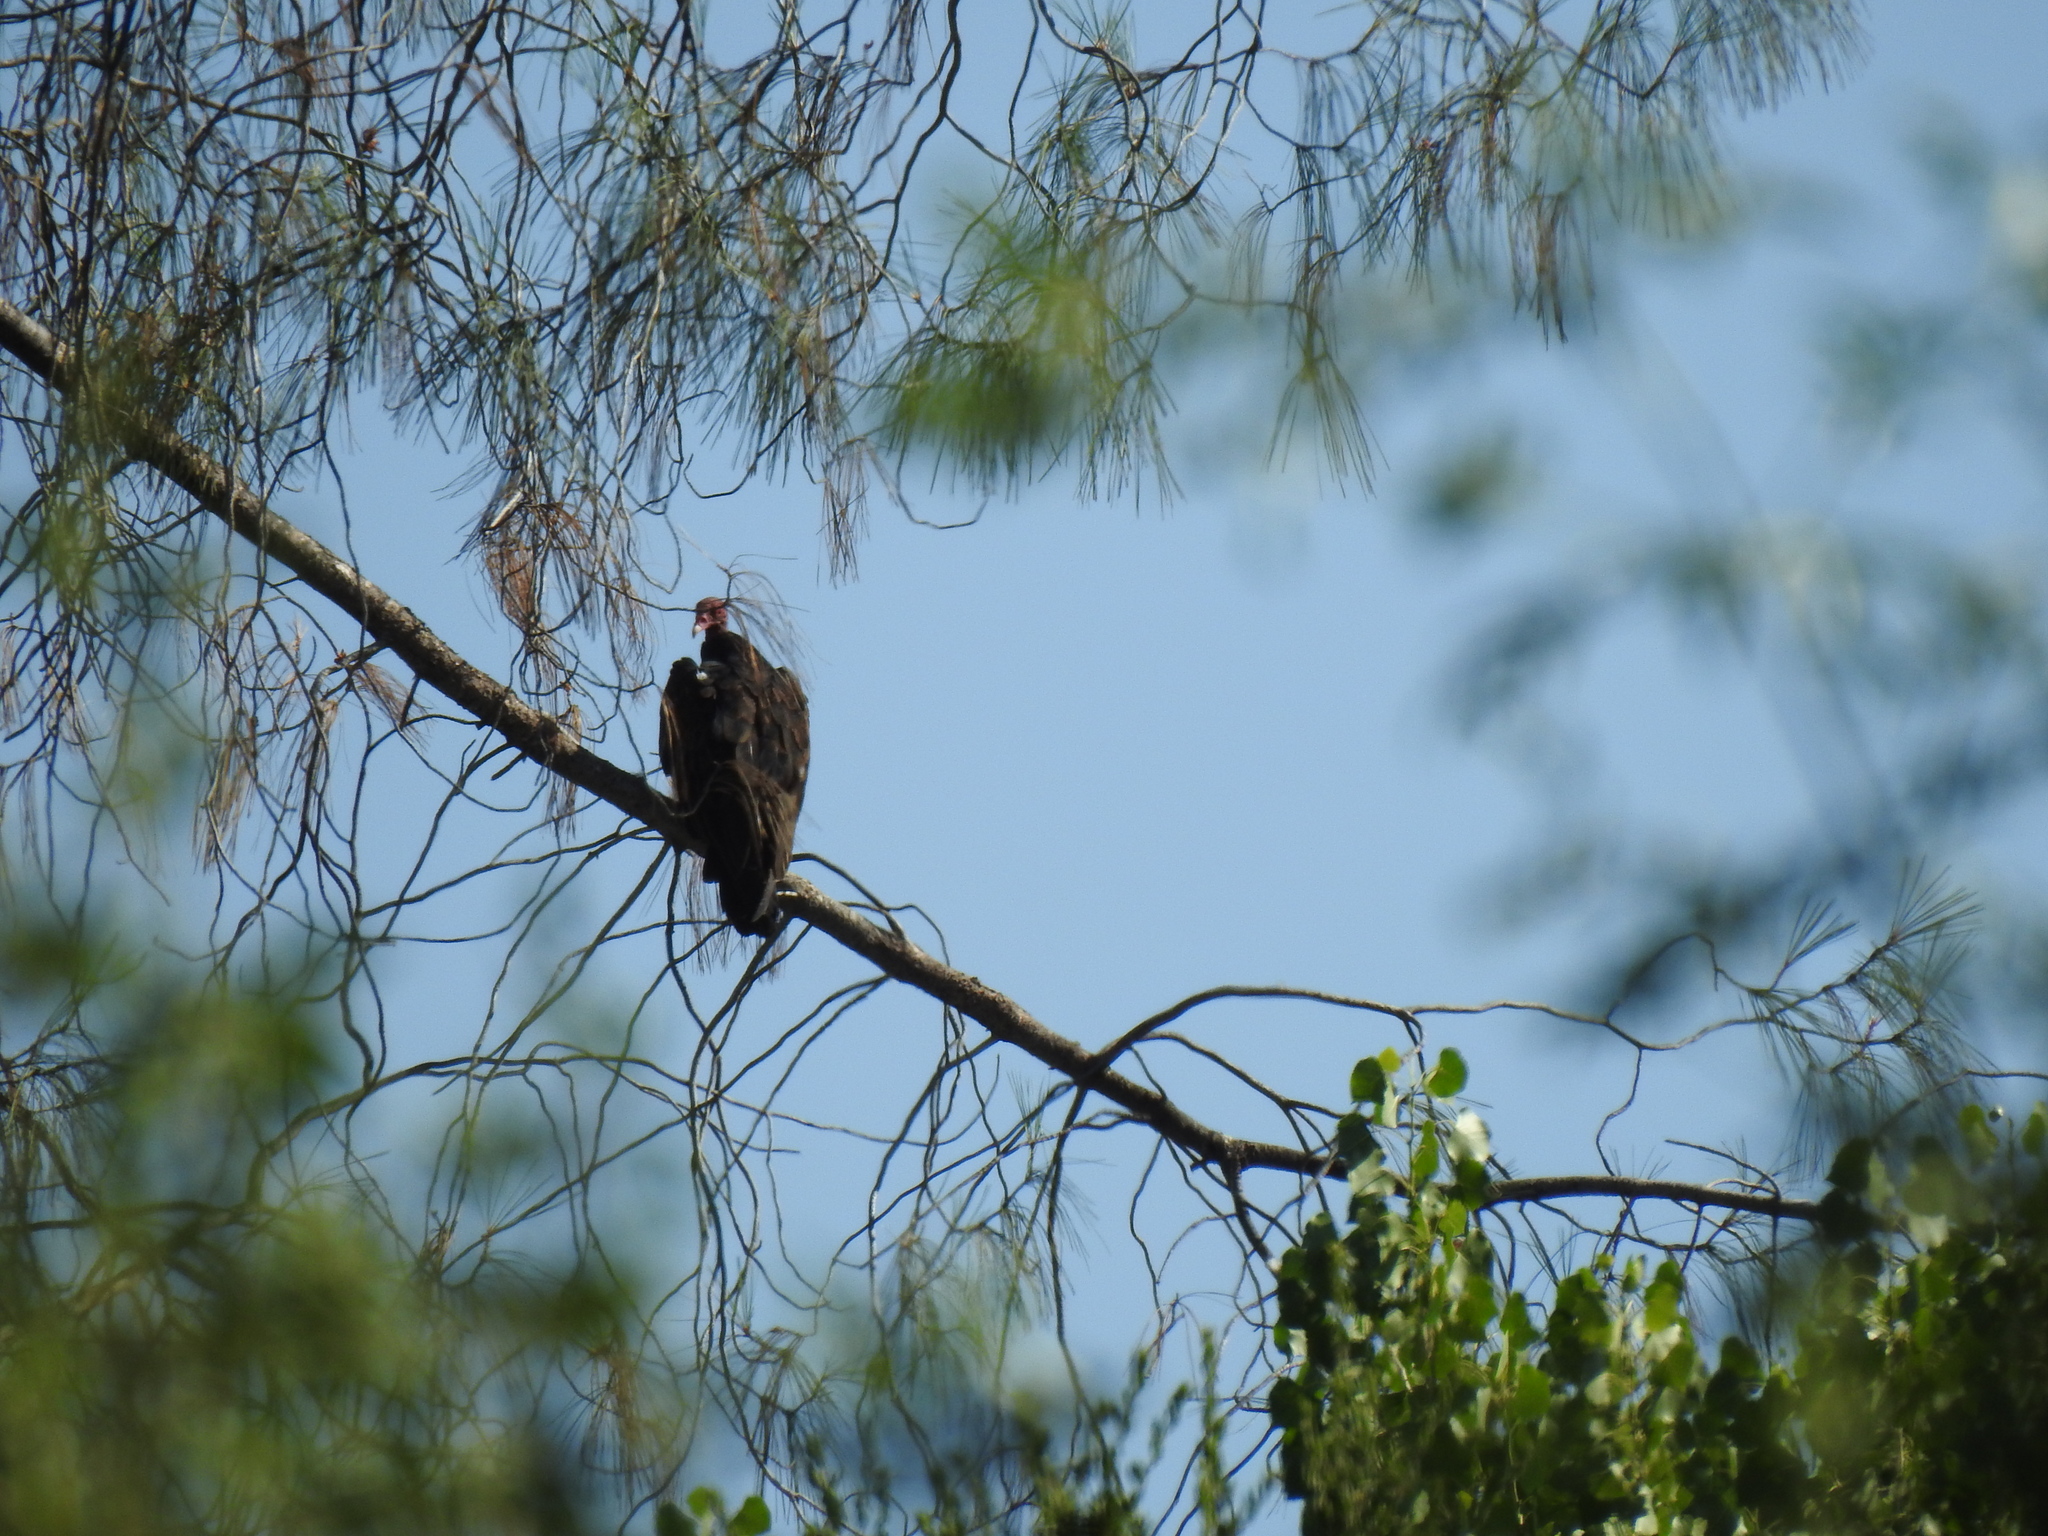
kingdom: Animalia
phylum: Chordata
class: Aves
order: Accipitriformes
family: Cathartidae
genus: Cathartes
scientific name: Cathartes aura
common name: Turkey vulture
